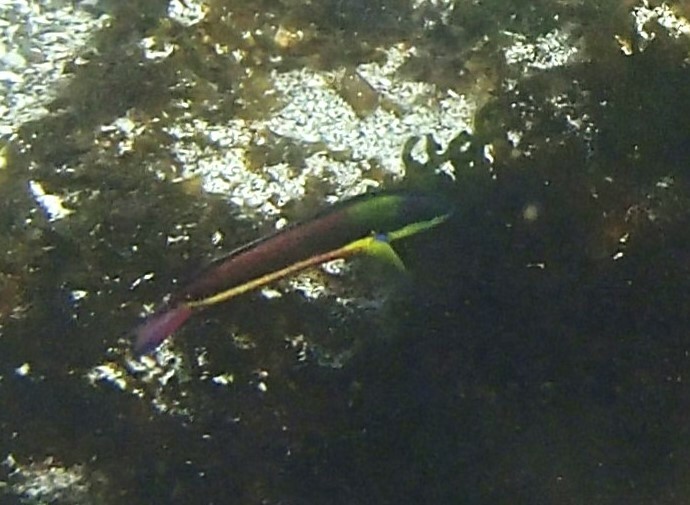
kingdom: Animalia
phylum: Chordata
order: Perciformes
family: Labridae
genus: Thalassoma
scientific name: Thalassoma lucasanum
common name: Cortez rainbow wrasse
